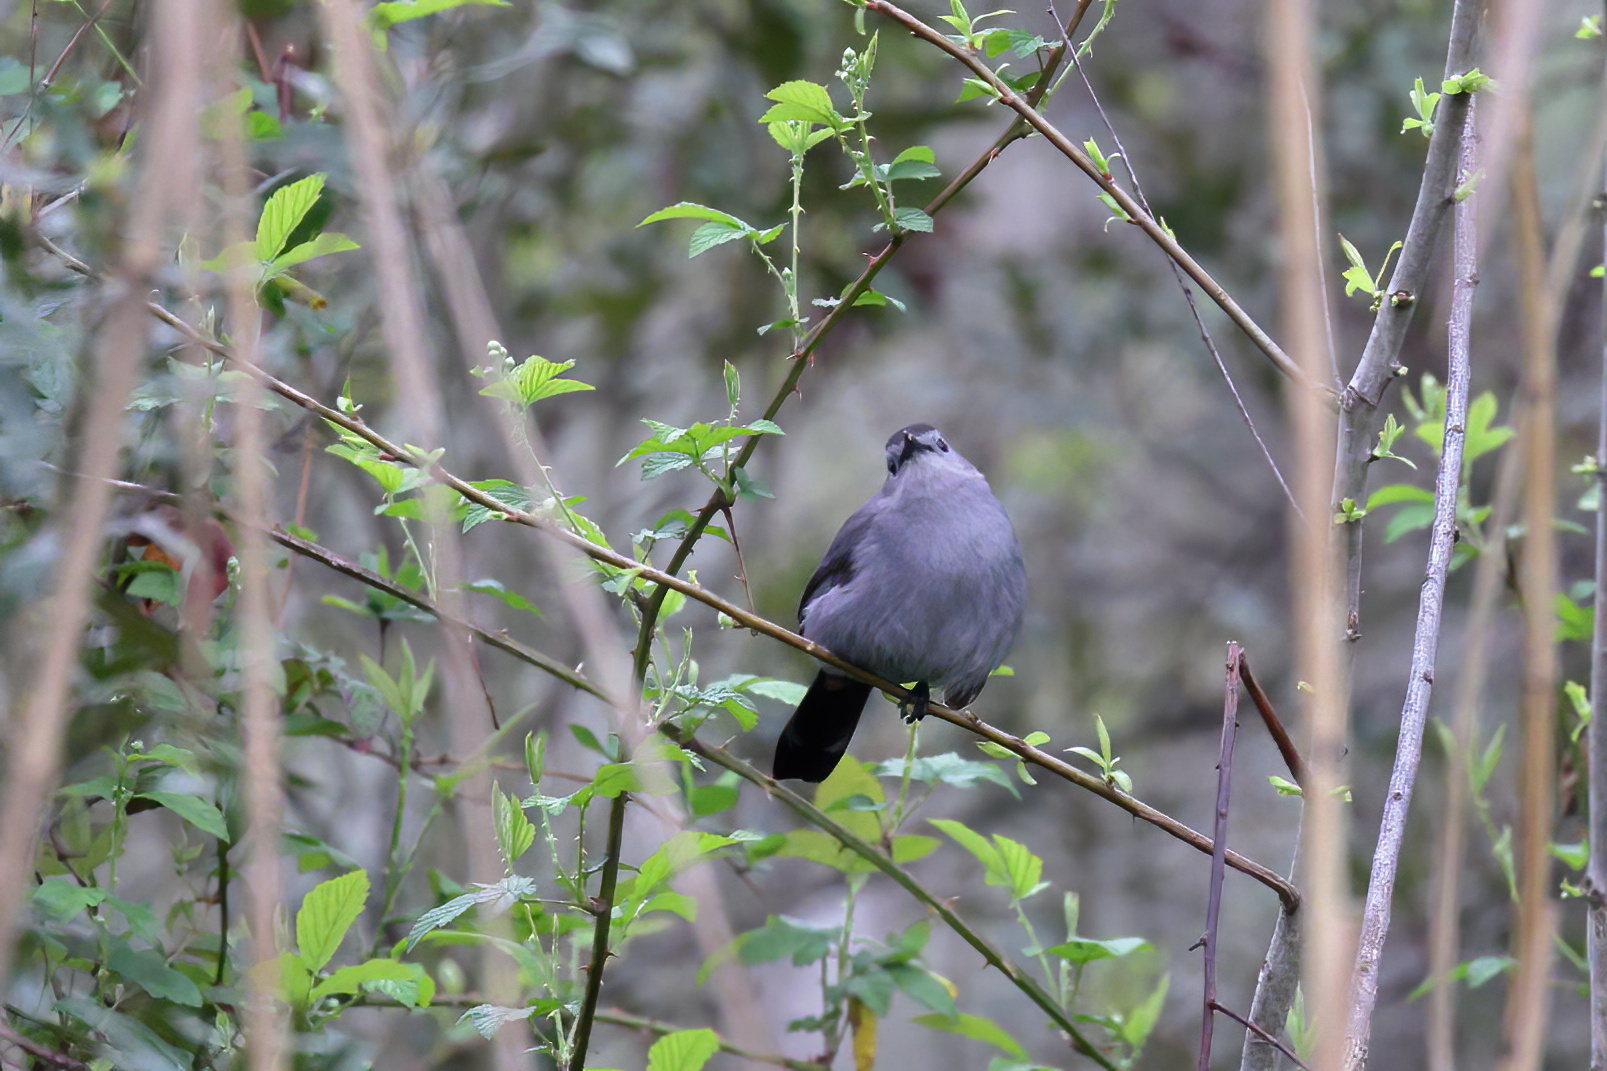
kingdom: Animalia
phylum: Chordata
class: Aves
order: Passeriformes
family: Mimidae
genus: Dumetella
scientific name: Dumetella carolinensis
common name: Gray catbird
